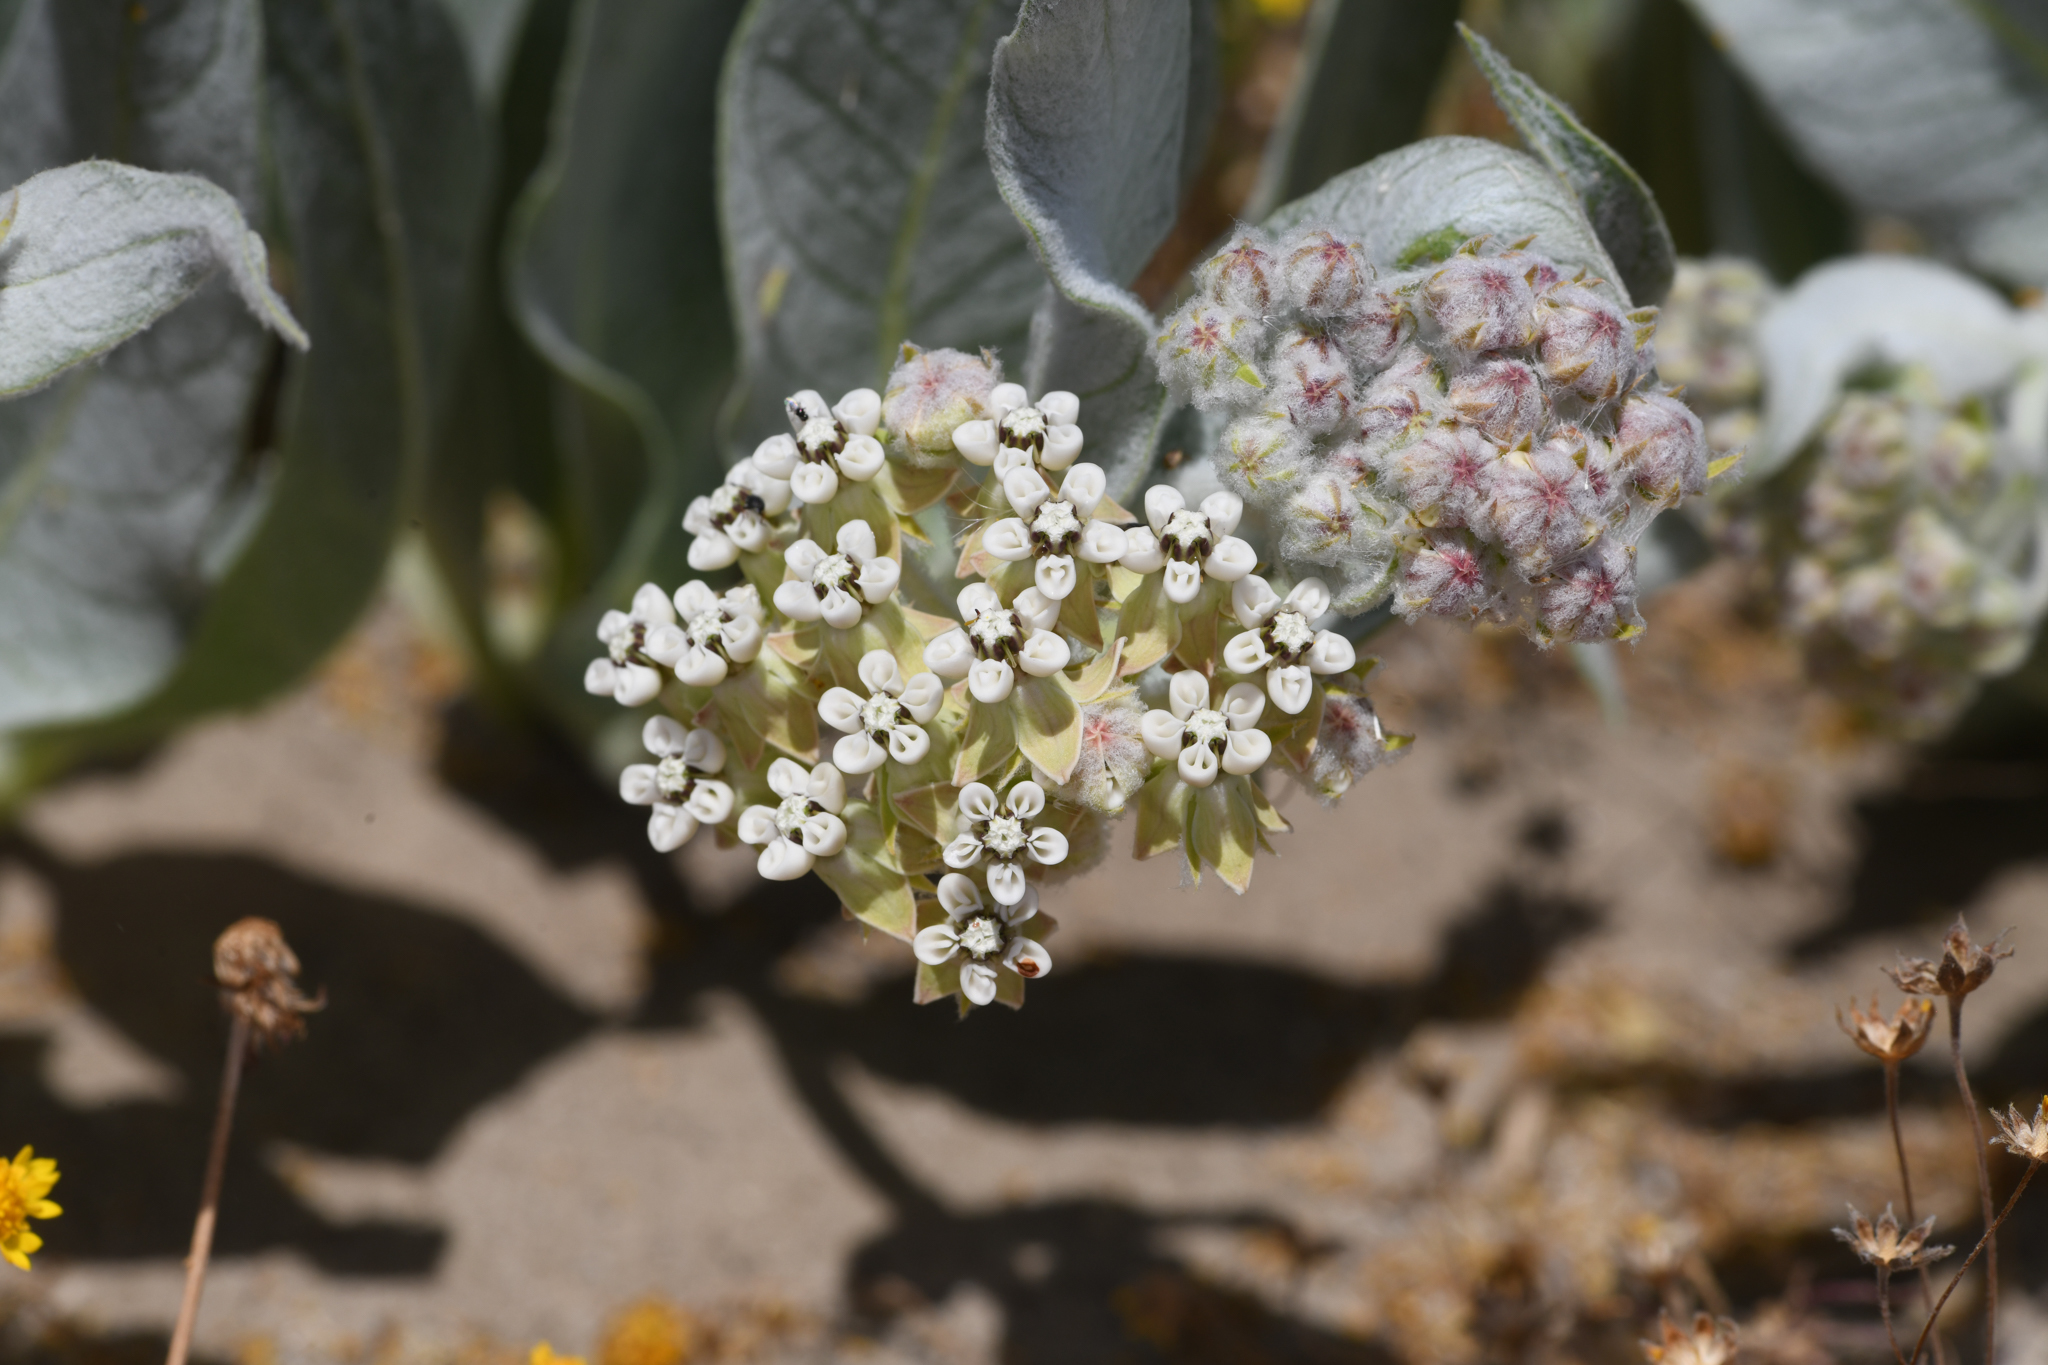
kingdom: Plantae
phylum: Tracheophyta
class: Magnoliopsida
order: Gentianales
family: Apocynaceae
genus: Asclepias
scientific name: Asclepias vestita
